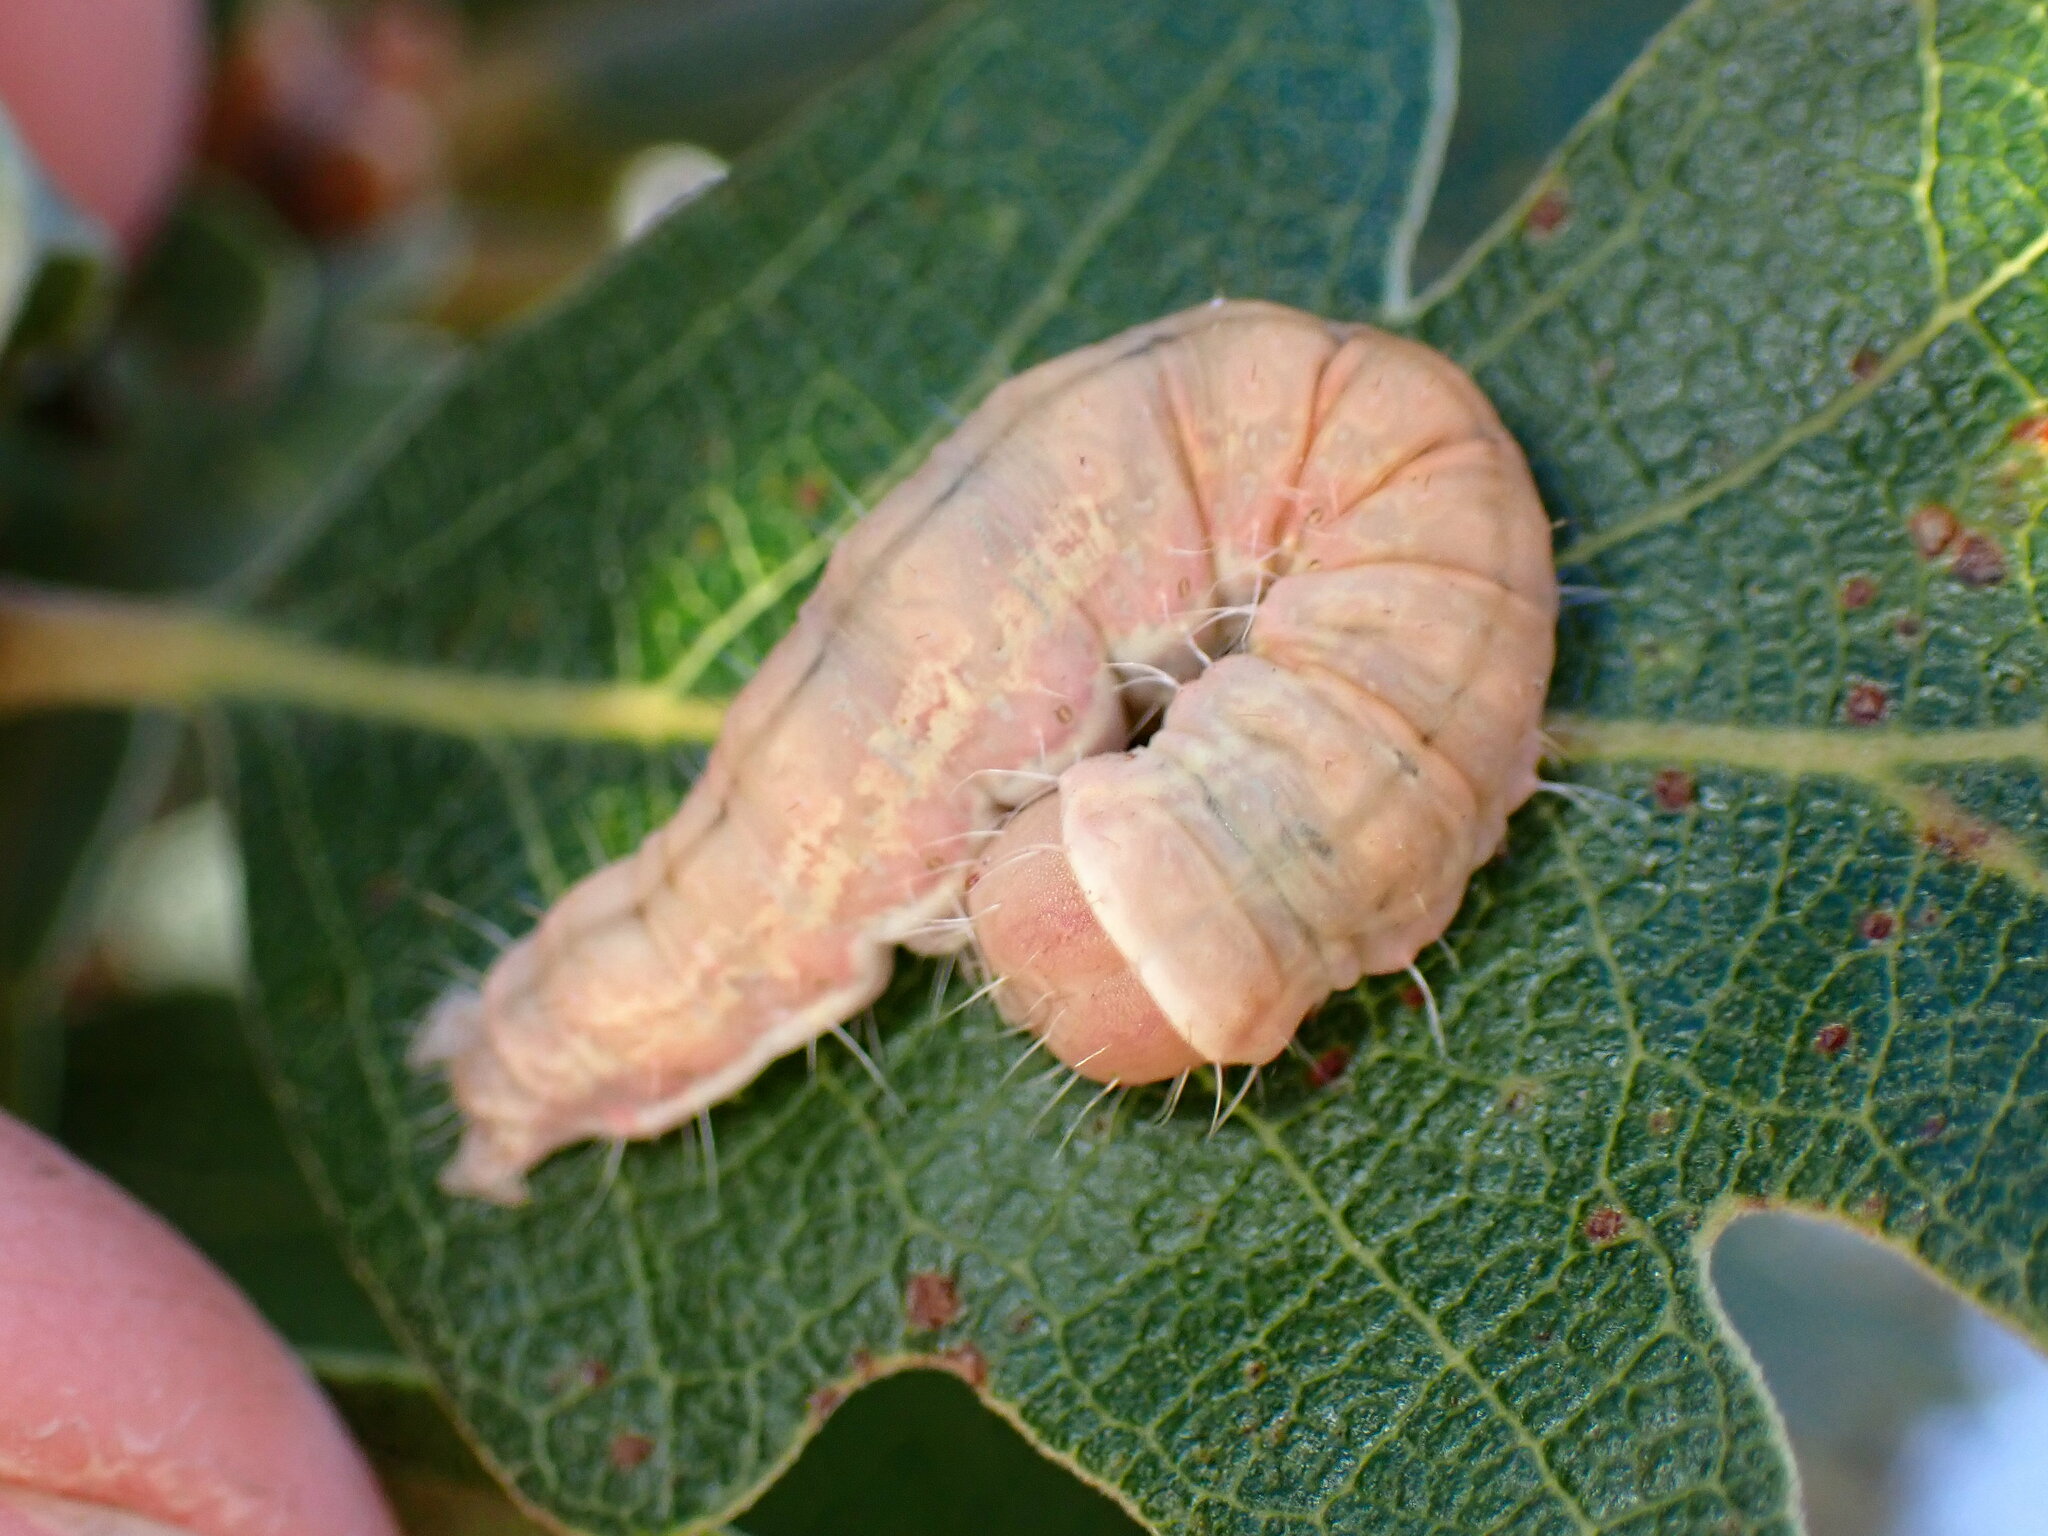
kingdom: Animalia
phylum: Arthropoda
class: Insecta
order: Lepidoptera
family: Noctuidae
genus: Acronicta
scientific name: Acronicta marmorata
